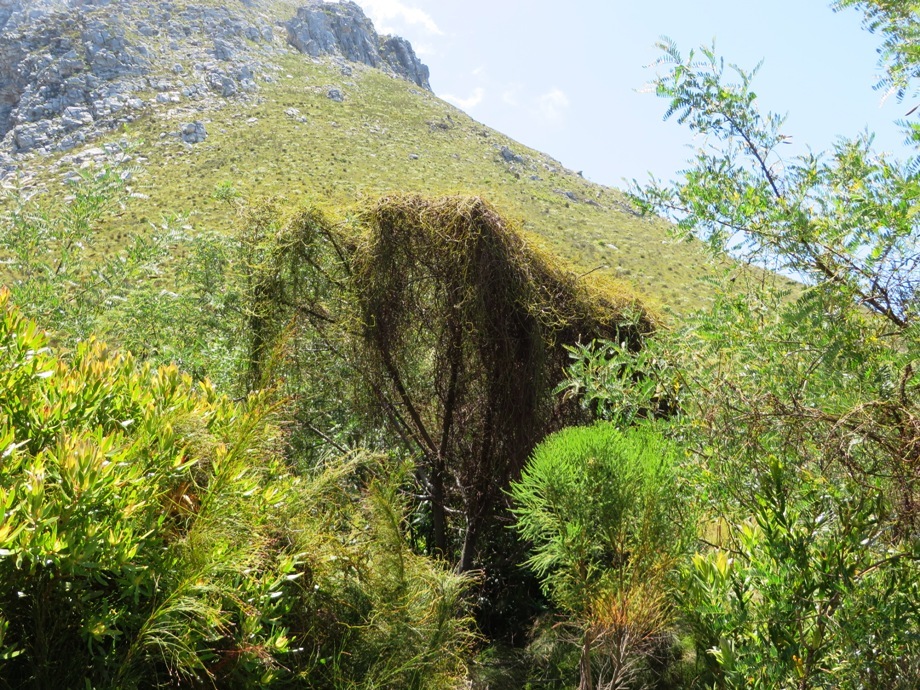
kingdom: Plantae
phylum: Tracheophyta
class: Magnoliopsida
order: Laurales
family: Lauraceae
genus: Cassytha
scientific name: Cassytha ciliolata
